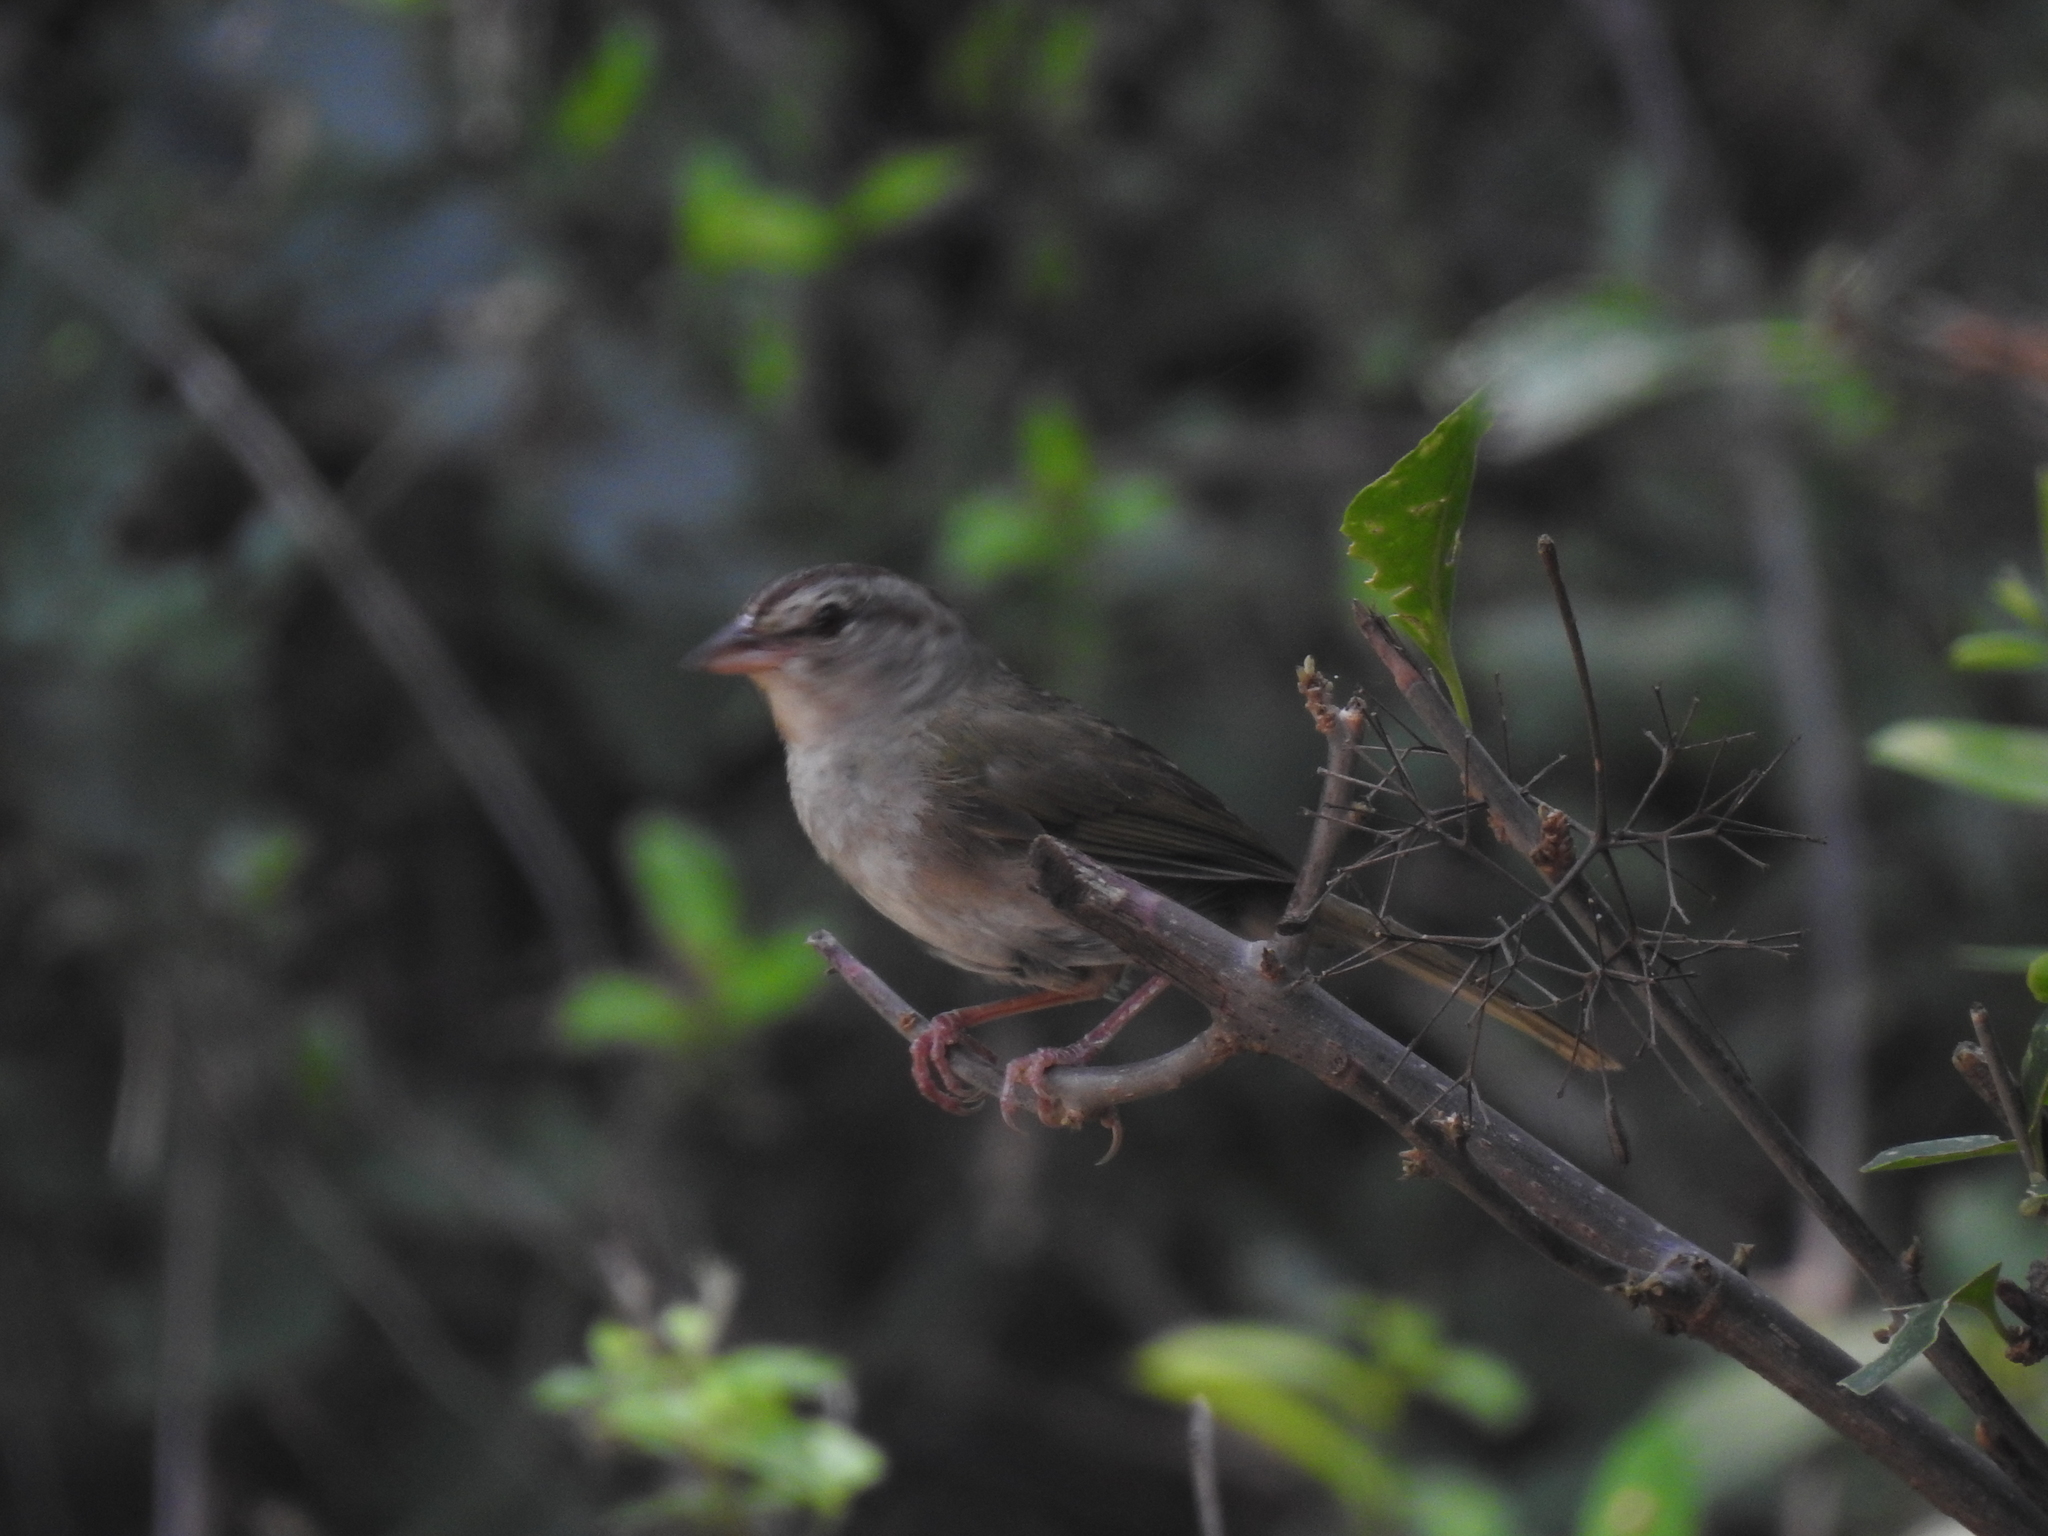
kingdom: Animalia
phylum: Chordata
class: Aves
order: Passeriformes
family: Passerellidae
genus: Arremonops
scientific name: Arremonops rufivirgatus
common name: Olive sparrow
